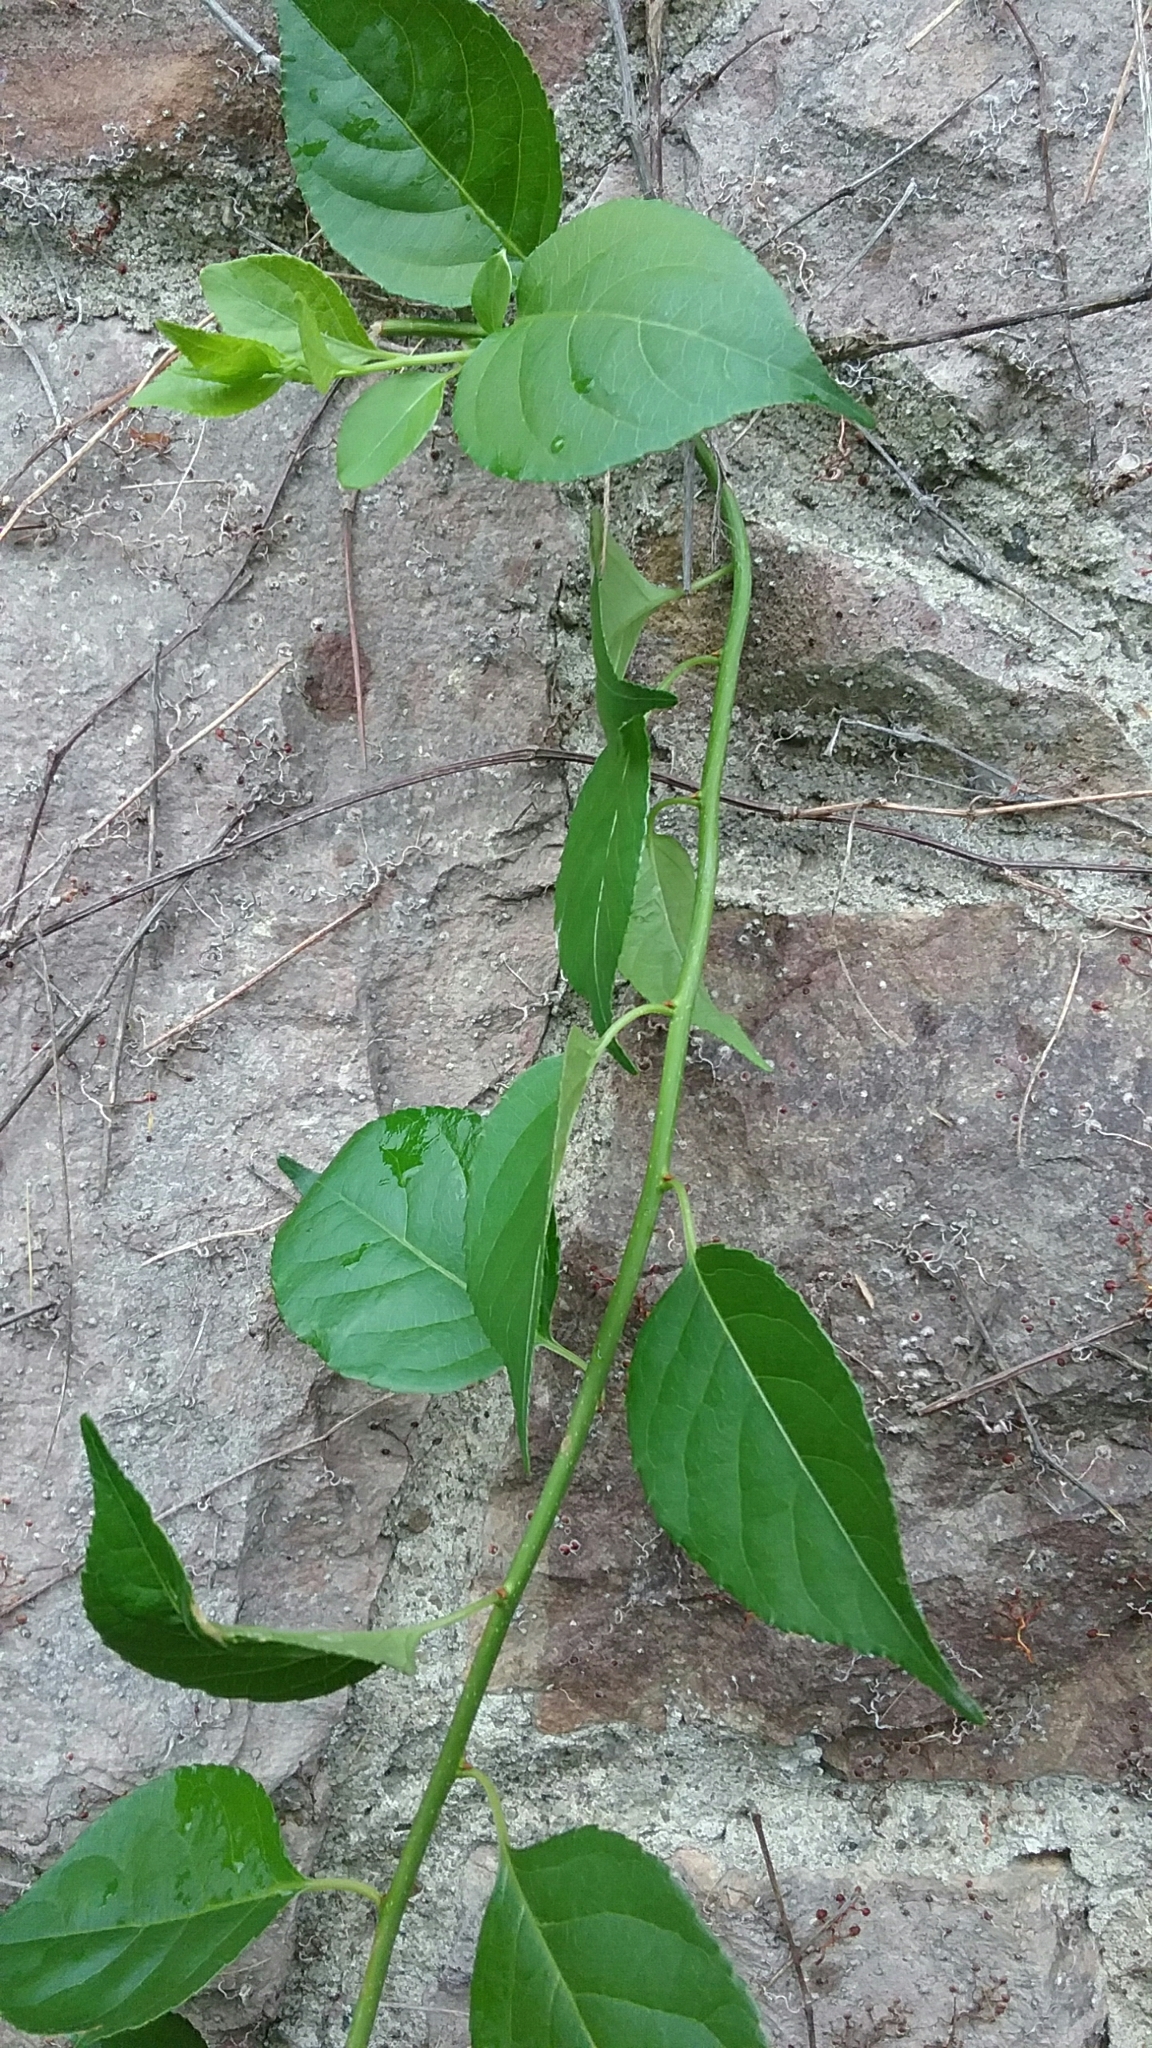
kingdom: Plantae
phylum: Tracheophyta
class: Magnoliopsida
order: Celastrales
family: Celastraceae
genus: Celastrus
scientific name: Celastrus orbiculatus
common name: Oriental bittersweet
